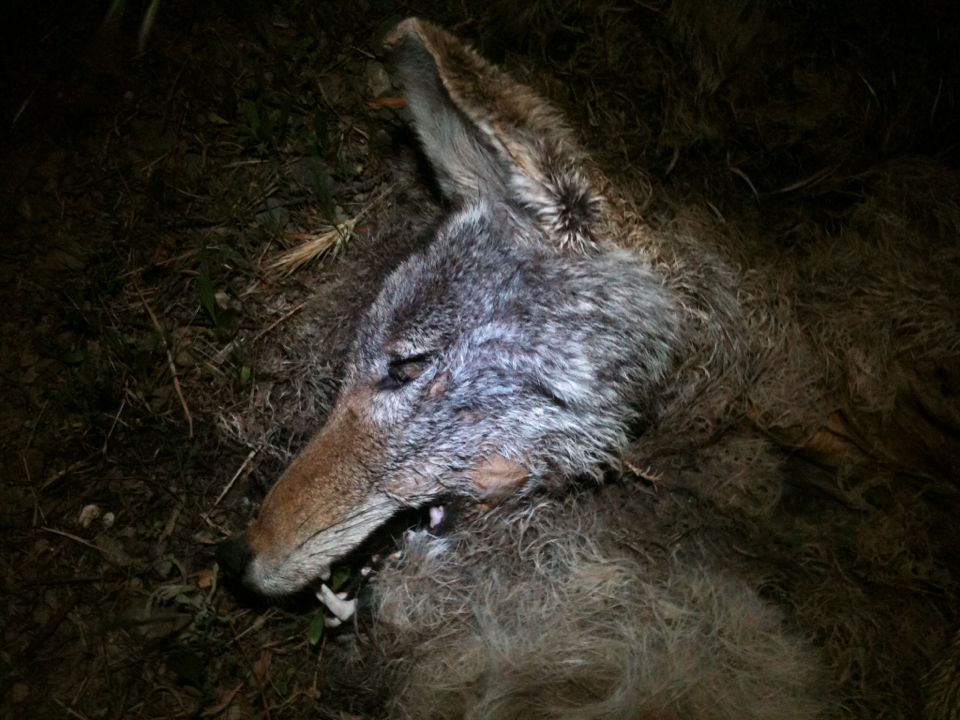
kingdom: Animalia
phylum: Chordata
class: Mammalia
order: Carnivora
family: Canidae
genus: Canis
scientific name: Canis latrans
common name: Coyote
